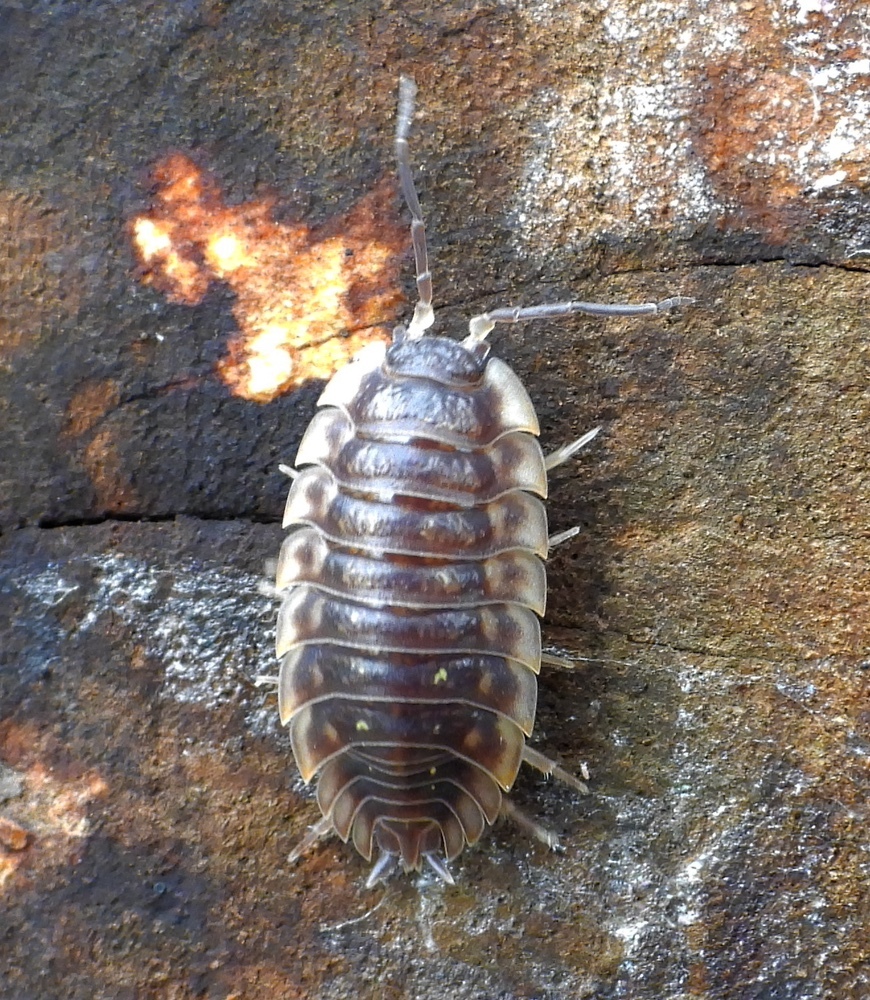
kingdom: Animalia
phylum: Arthropoda
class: Malacostraca
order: Isopoda
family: Oniscidae
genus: Oniscus
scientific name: Oniscus asellus
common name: Common shiny woodlouse
